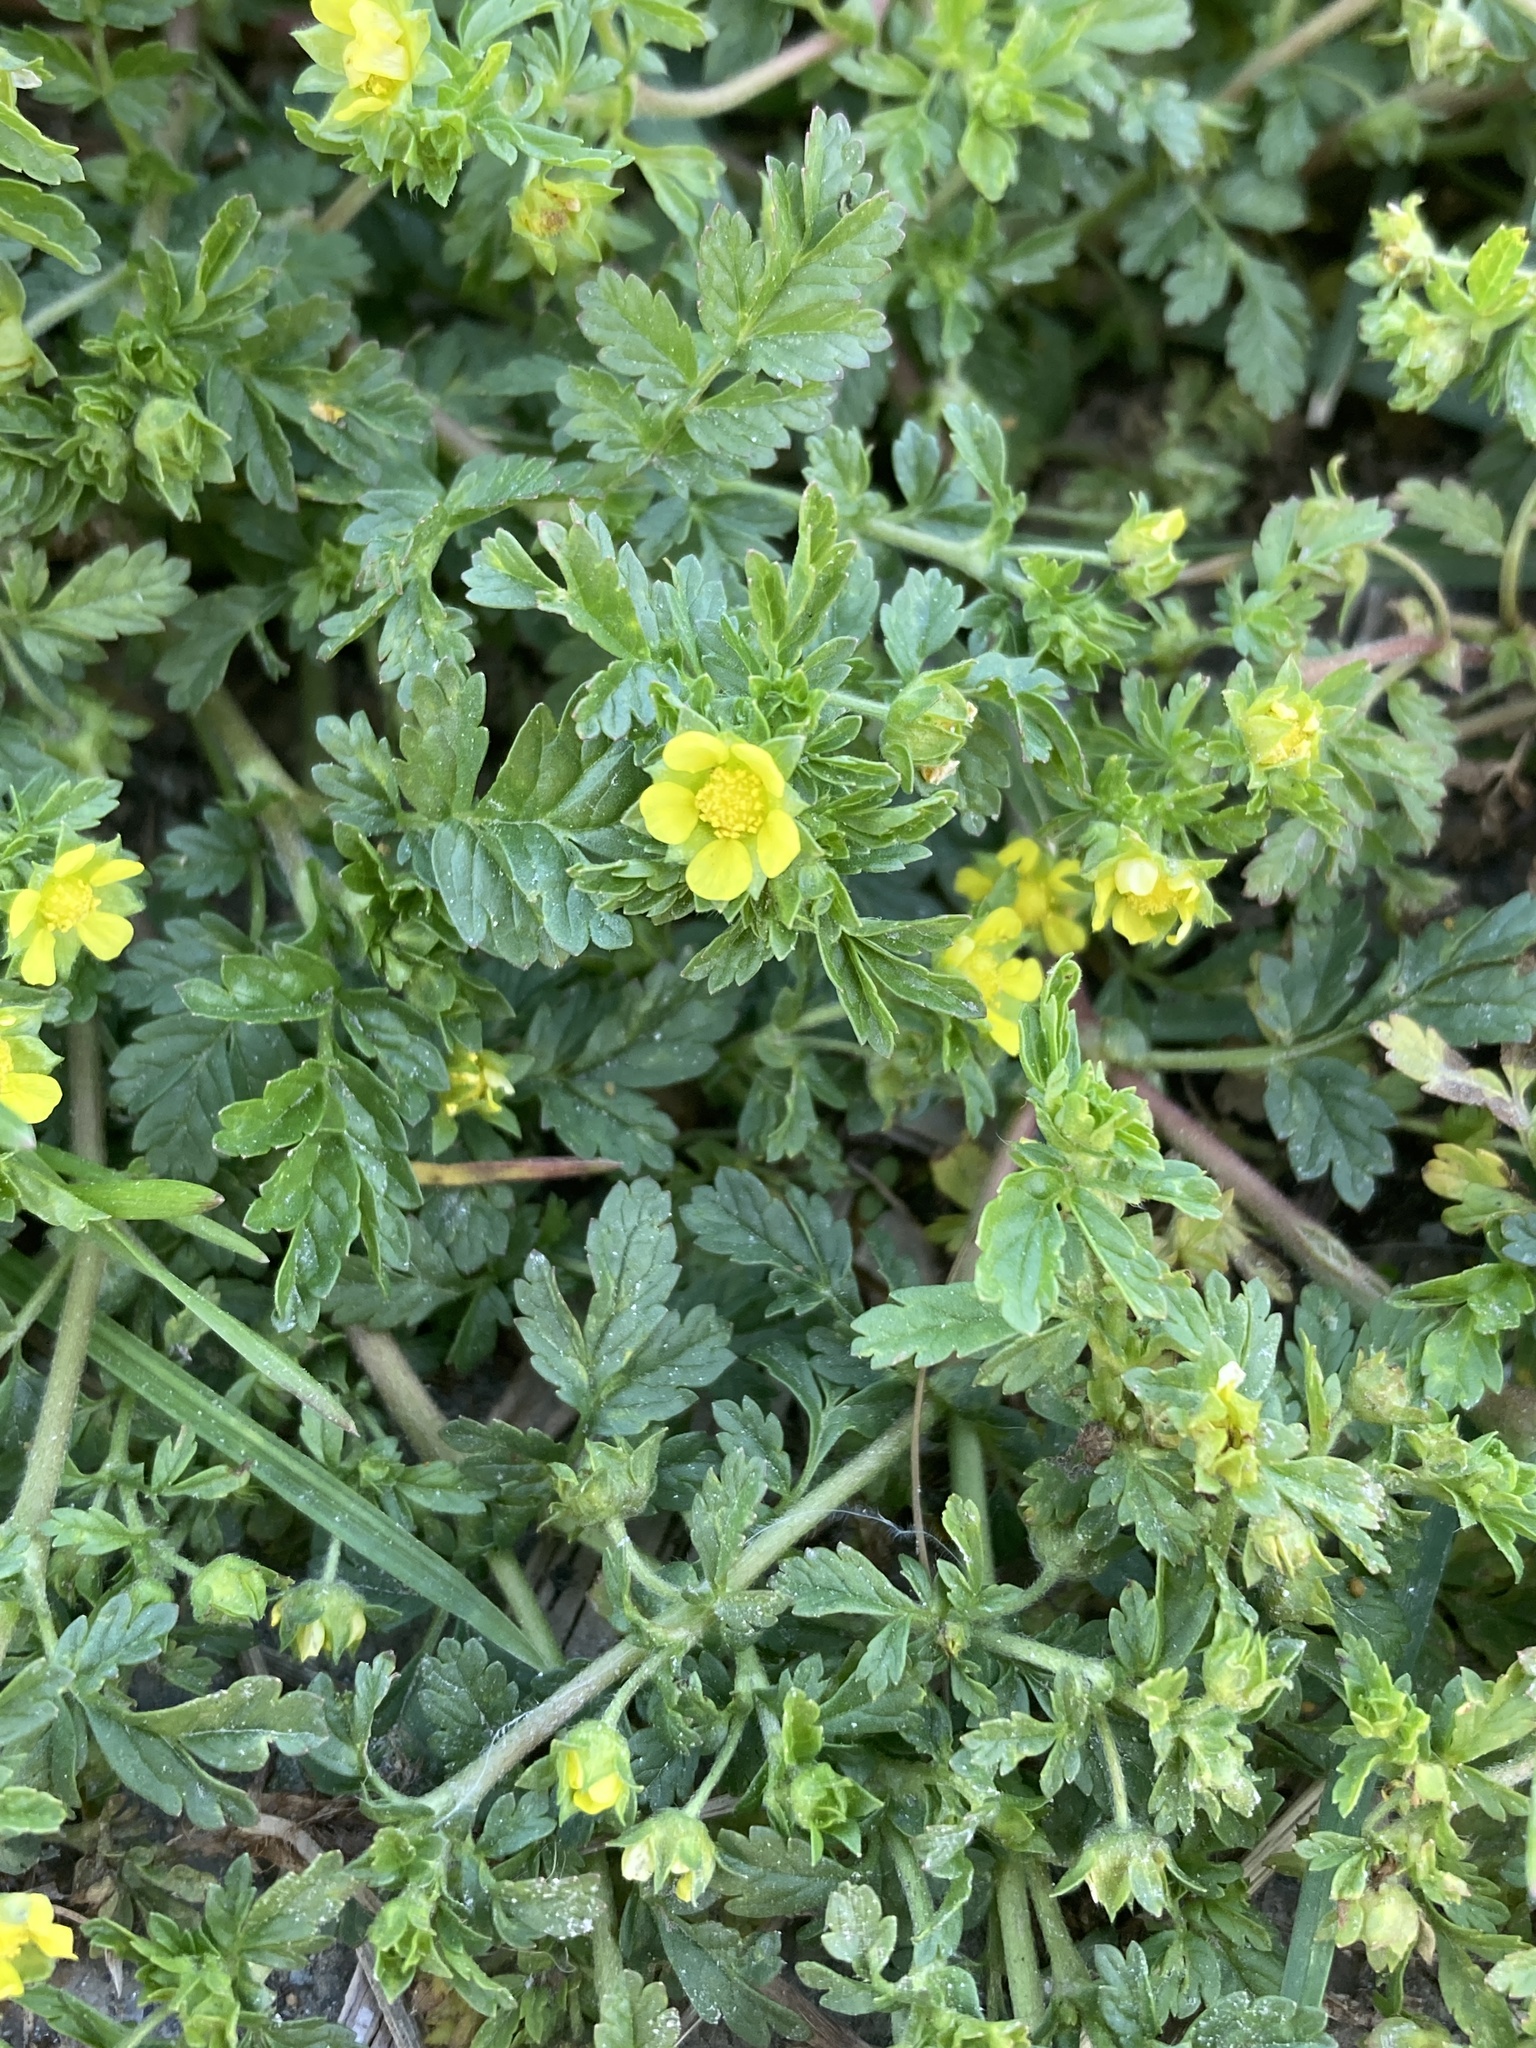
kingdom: Plantae
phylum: Tracheophyta
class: Magnoliopsida
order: Rosales
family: Rosaceae
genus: Potentilla
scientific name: Potentilla supina
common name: Prostrate cinquefoil
